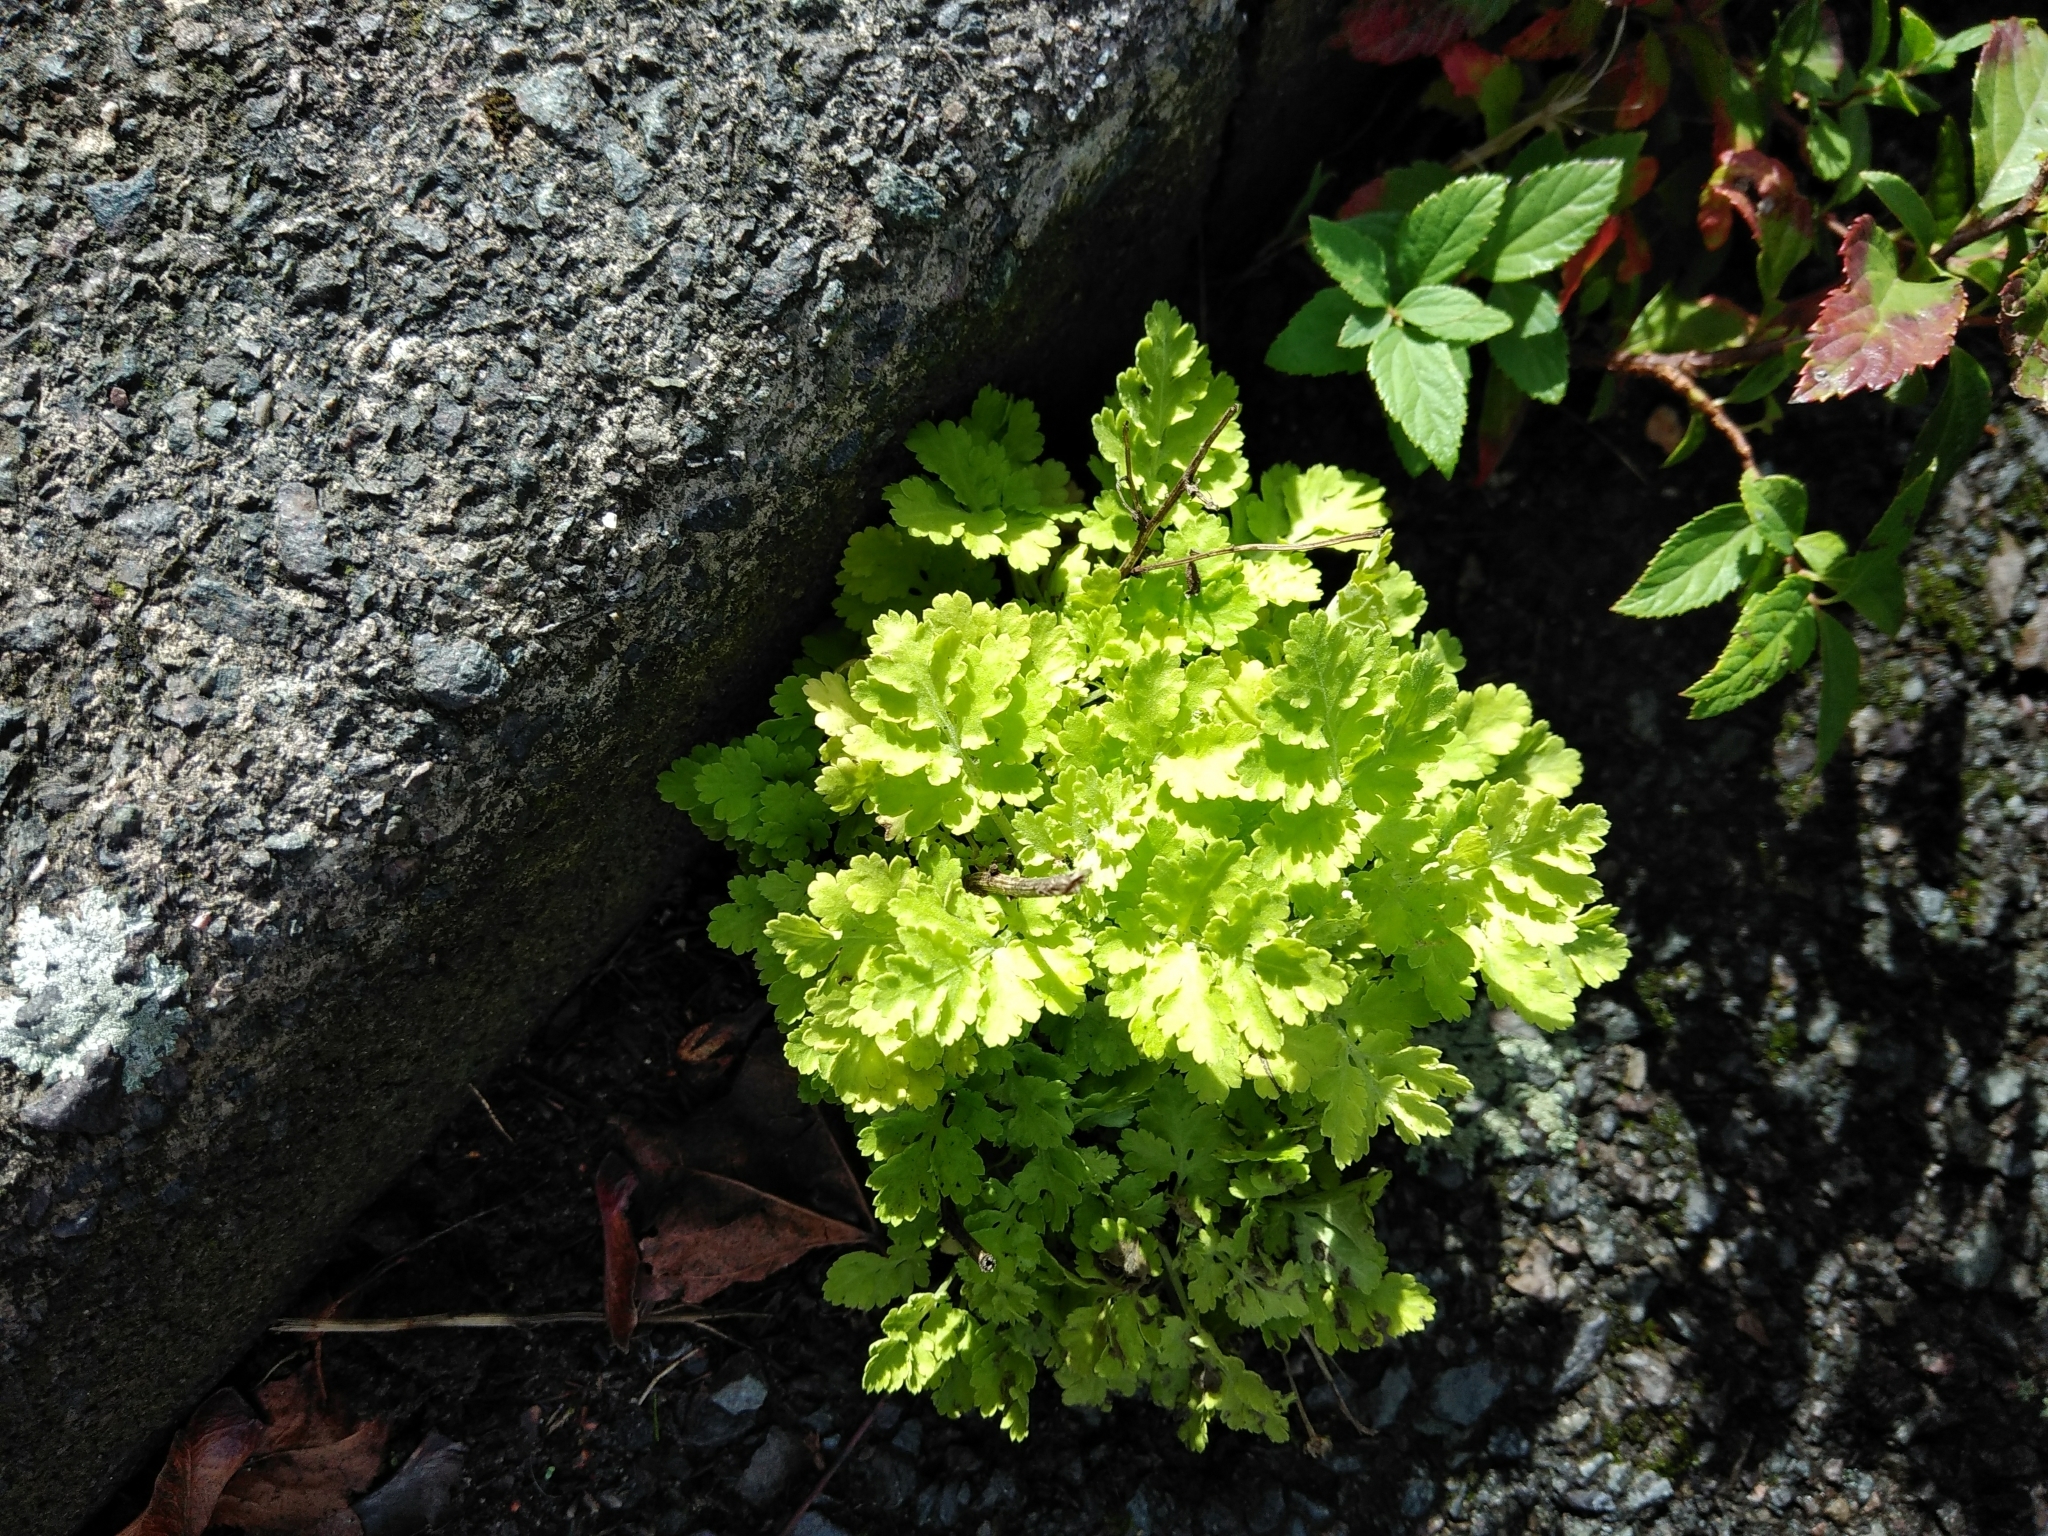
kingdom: Plantae
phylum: Tracheophyta
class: Magnoliopsida
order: Asterales
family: Asteraceae
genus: Tanacetum
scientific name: Tanacetum parthenium
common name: Feverfew
